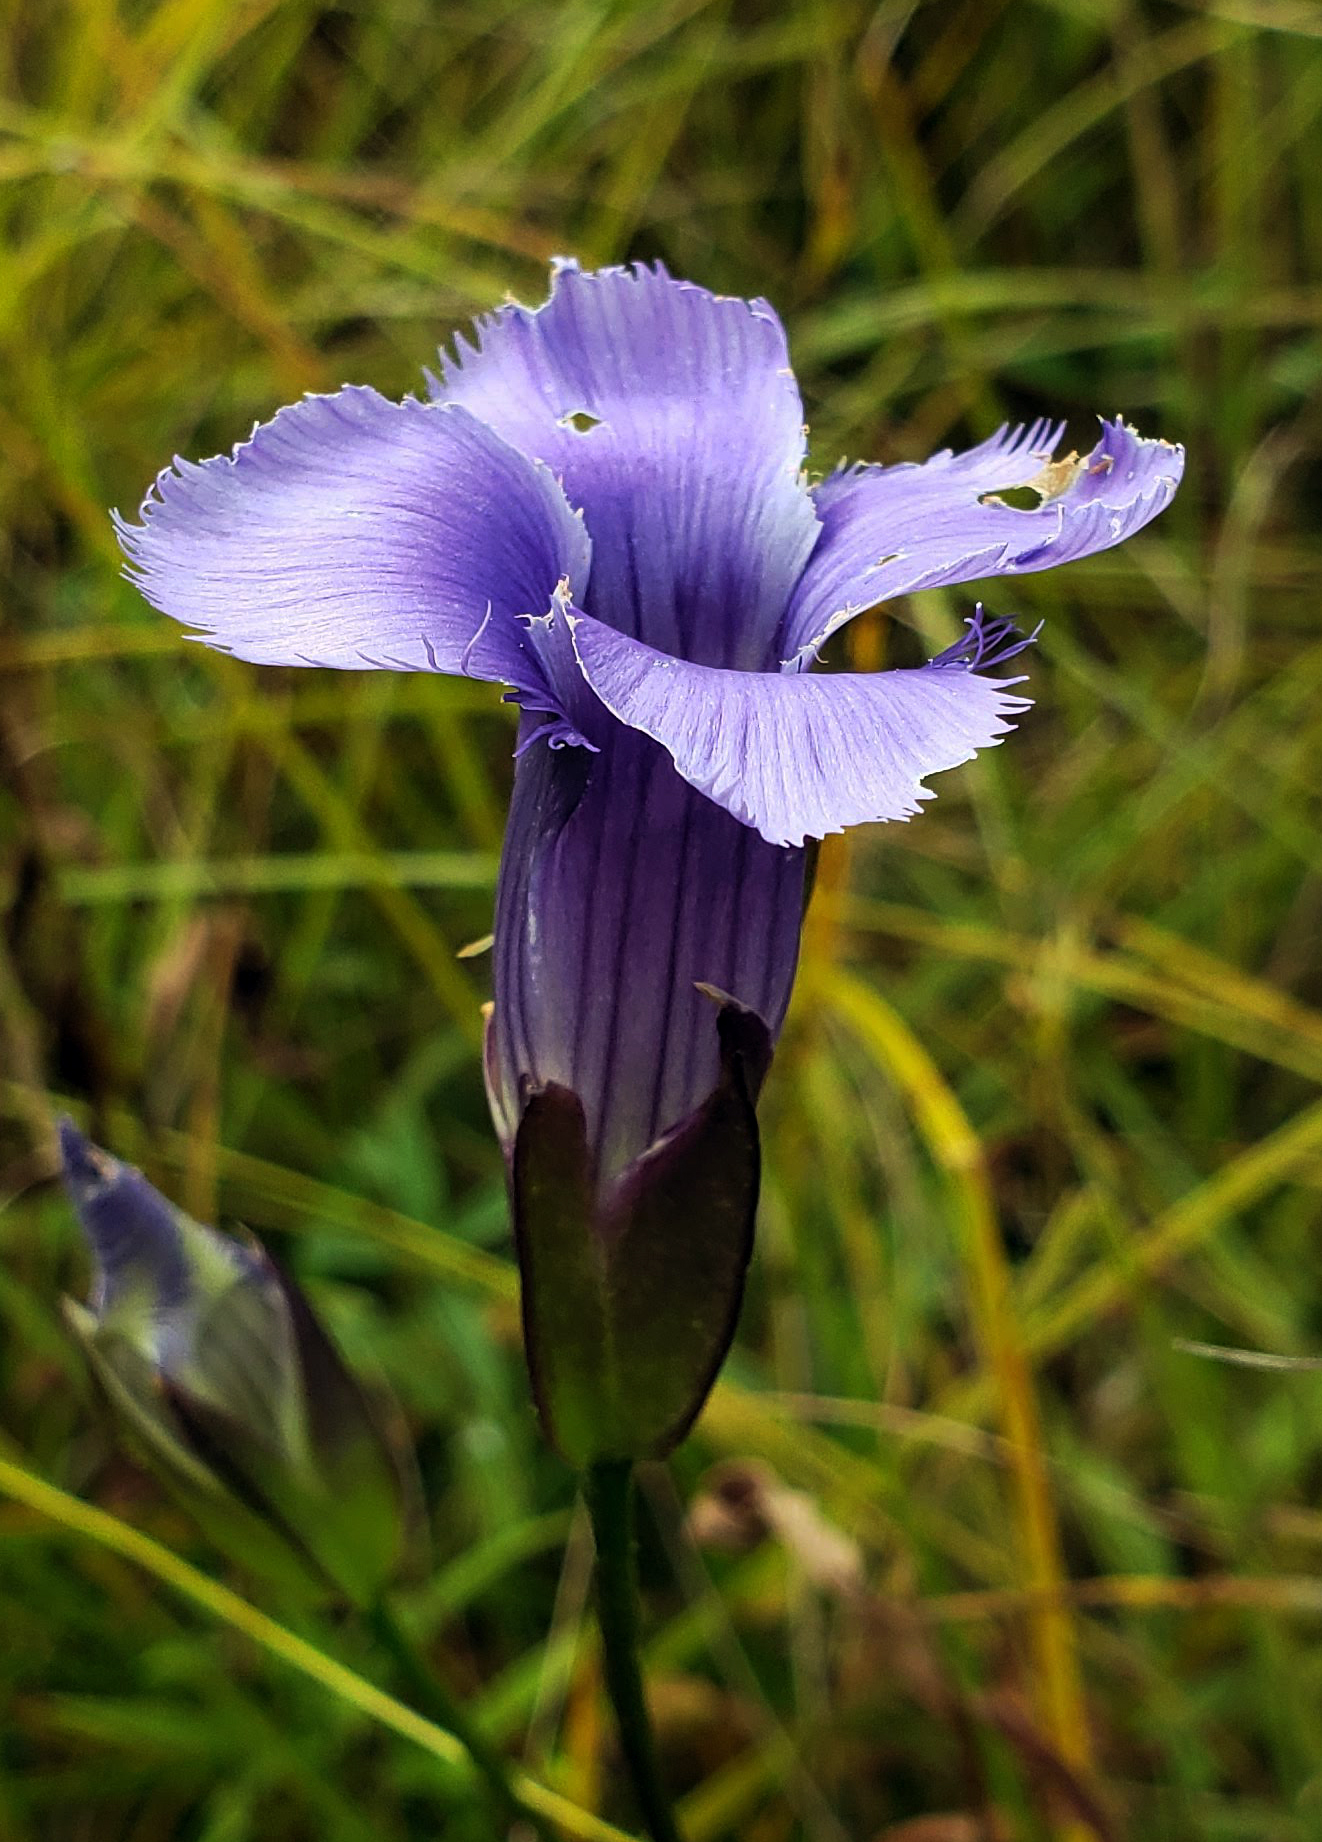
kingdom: Plantae
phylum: Tracheophyta
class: Magnoliopsida
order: Gentianales
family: Gentianaceae
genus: Gentianopsis
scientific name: Gentianopsis virgata
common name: Lesser fringed-gentian
